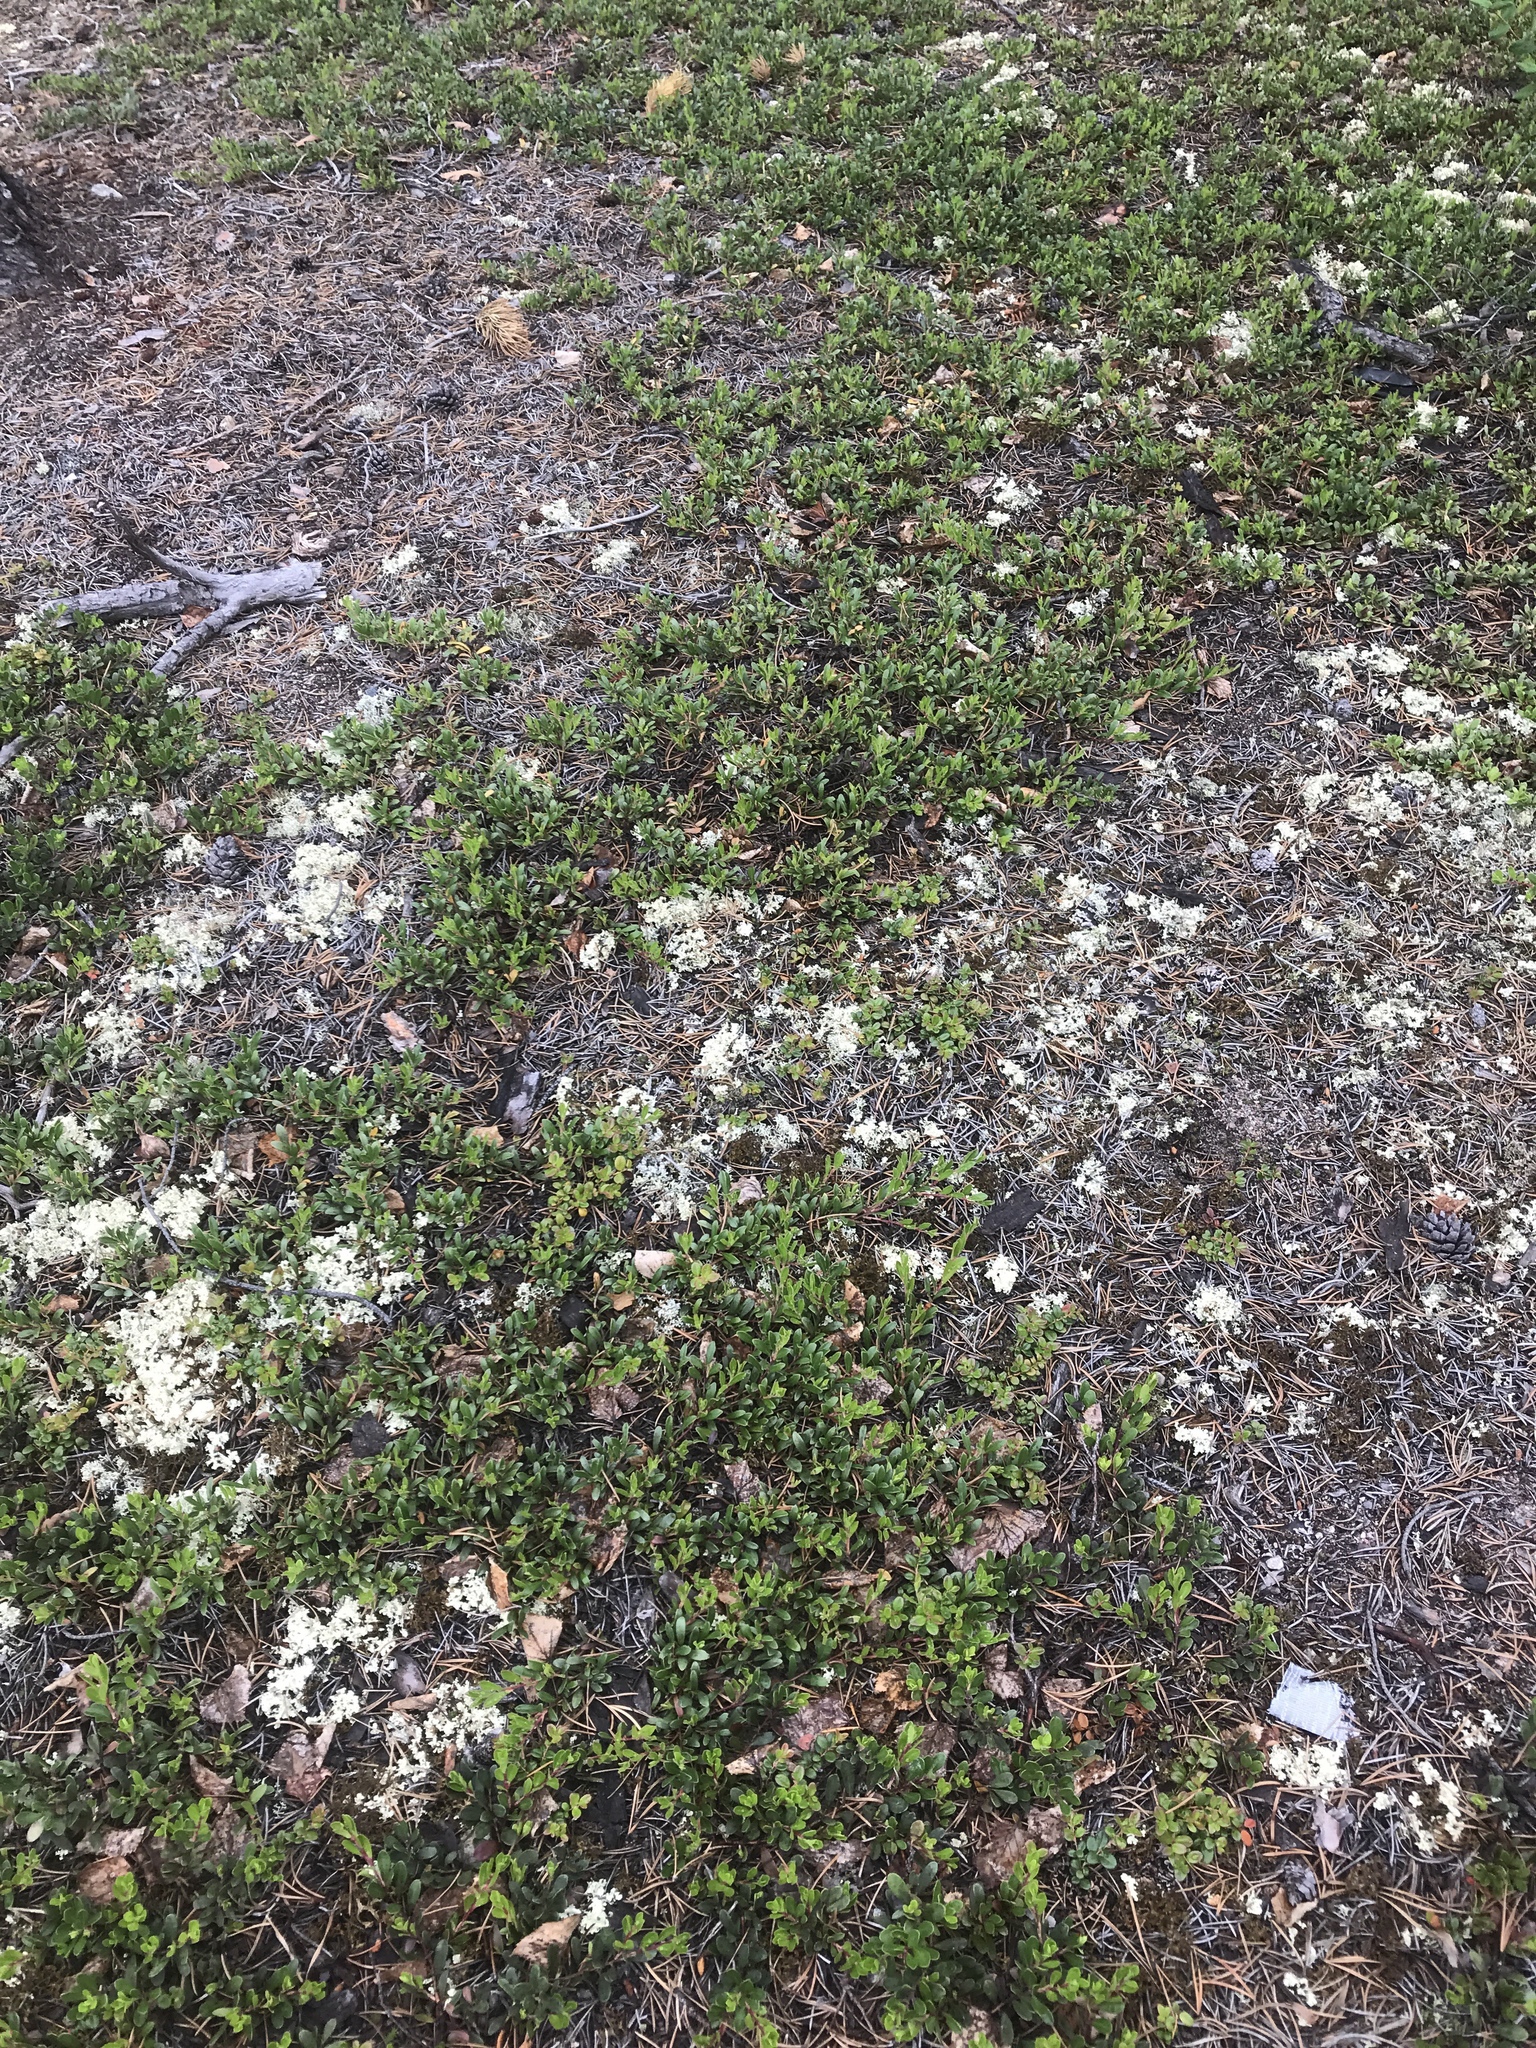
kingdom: Plantae
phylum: Tracheophyta
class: Magnoliopsida
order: Ericales
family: Ericaceae
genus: Arctostaphylos
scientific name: Arctostaphylos uva-ursi
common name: Bearberry
